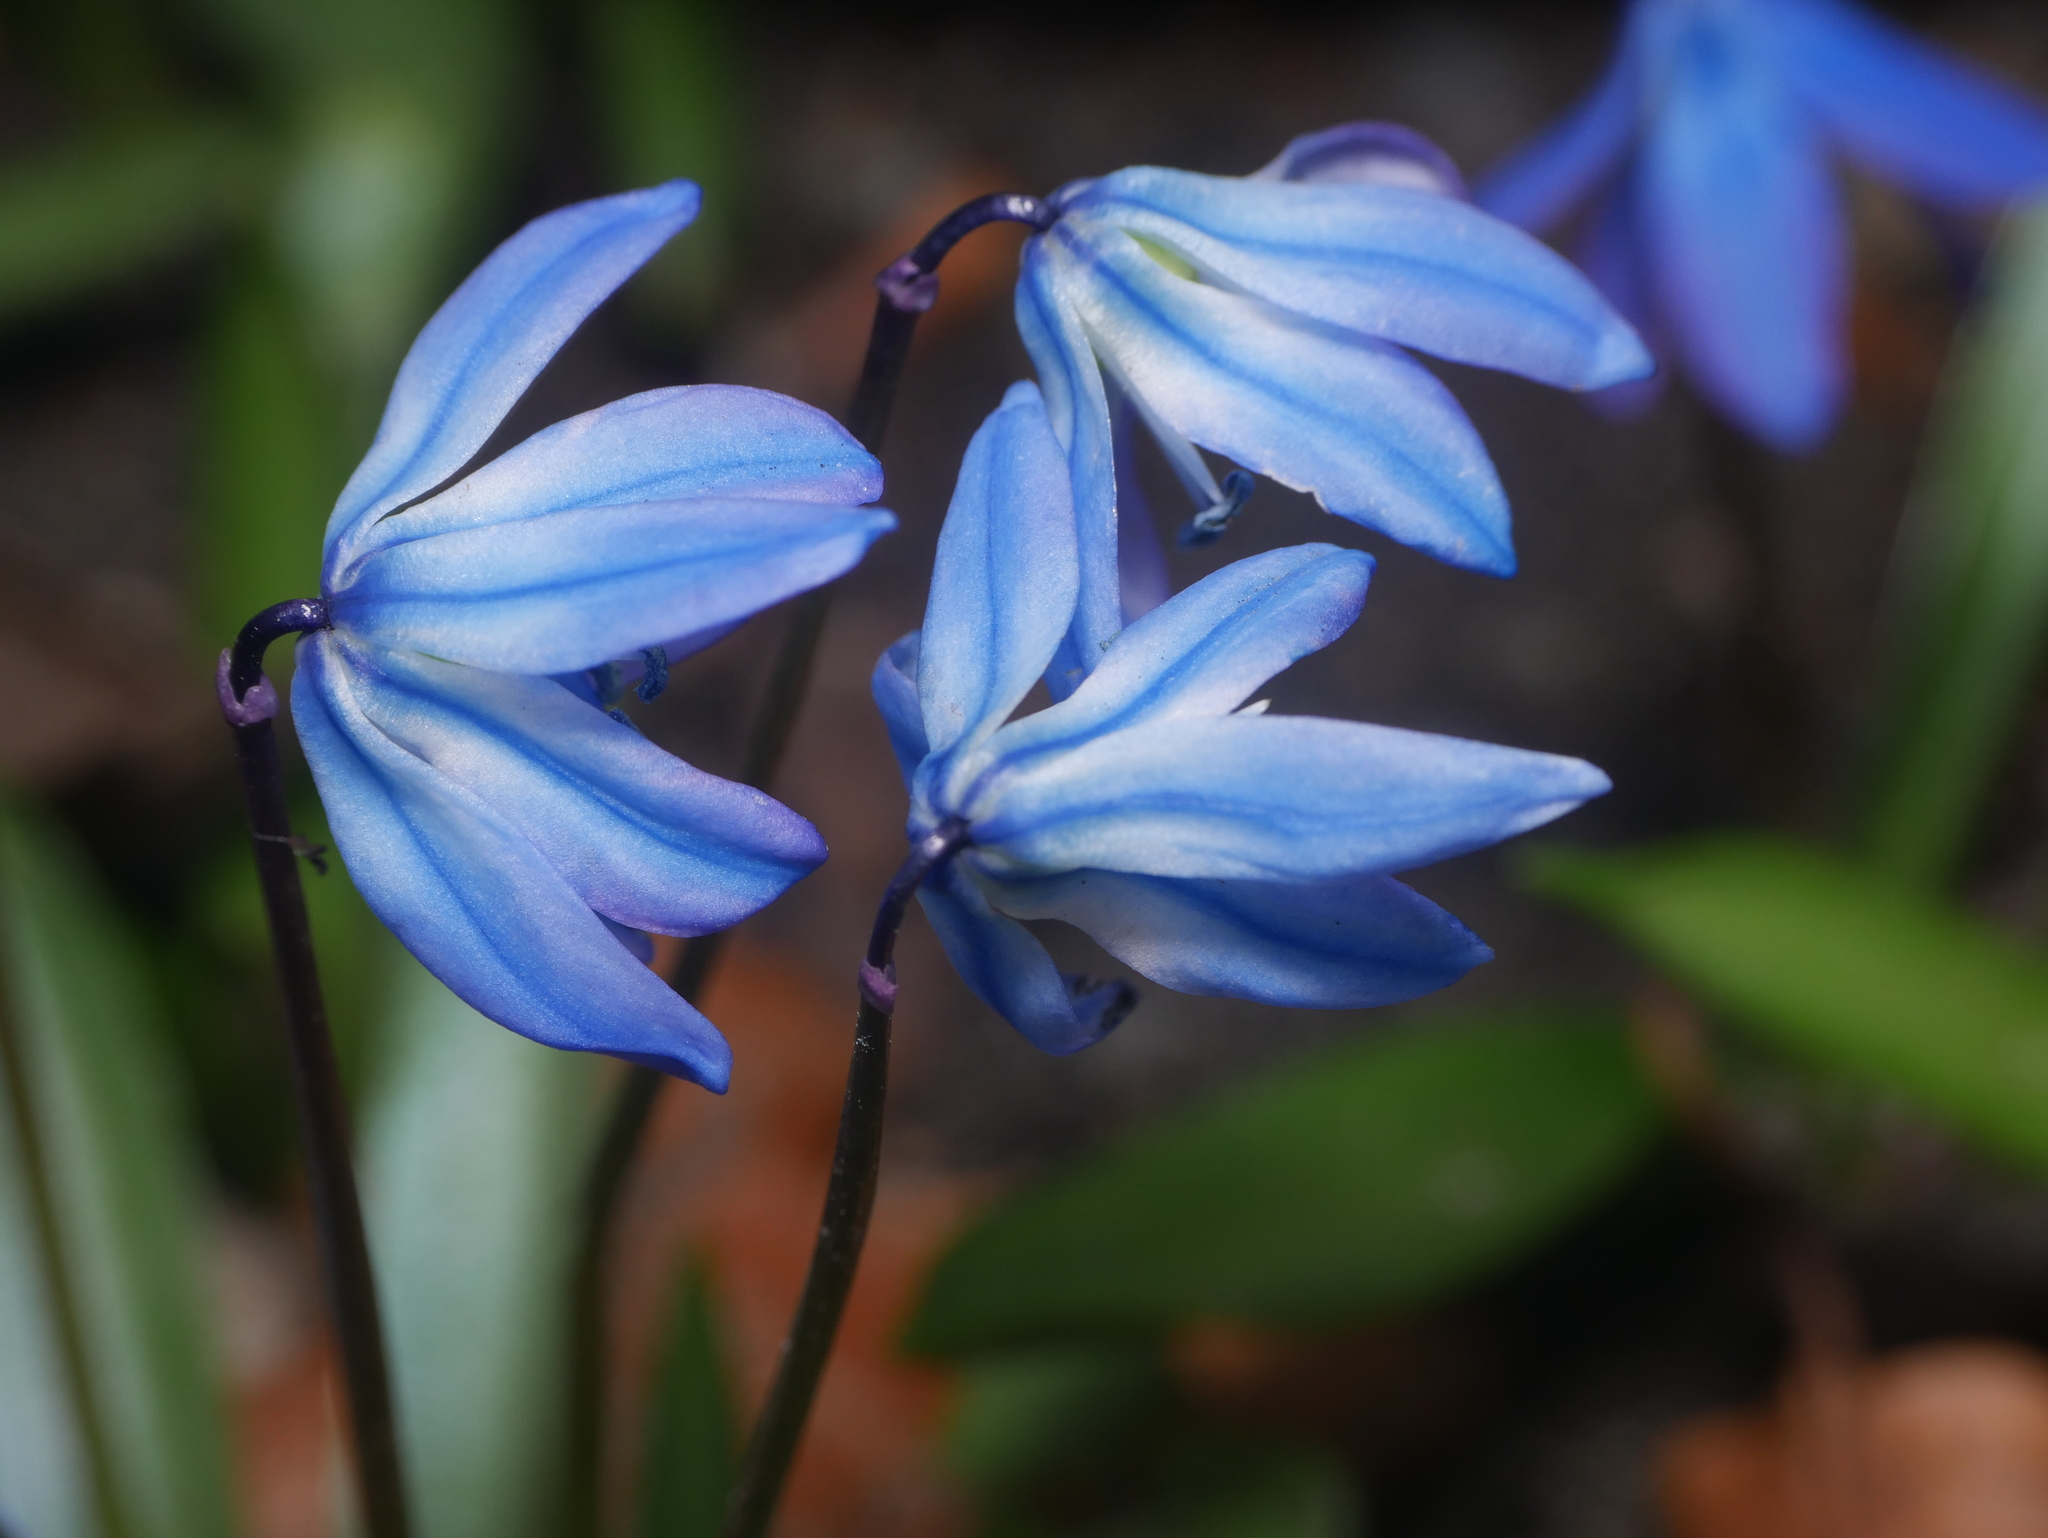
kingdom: Plantae
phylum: Tracheophyta
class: Liliopsida
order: Asparagales
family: Asparagaceae
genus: Scilla
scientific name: Scilla siberica
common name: Siberian squill
